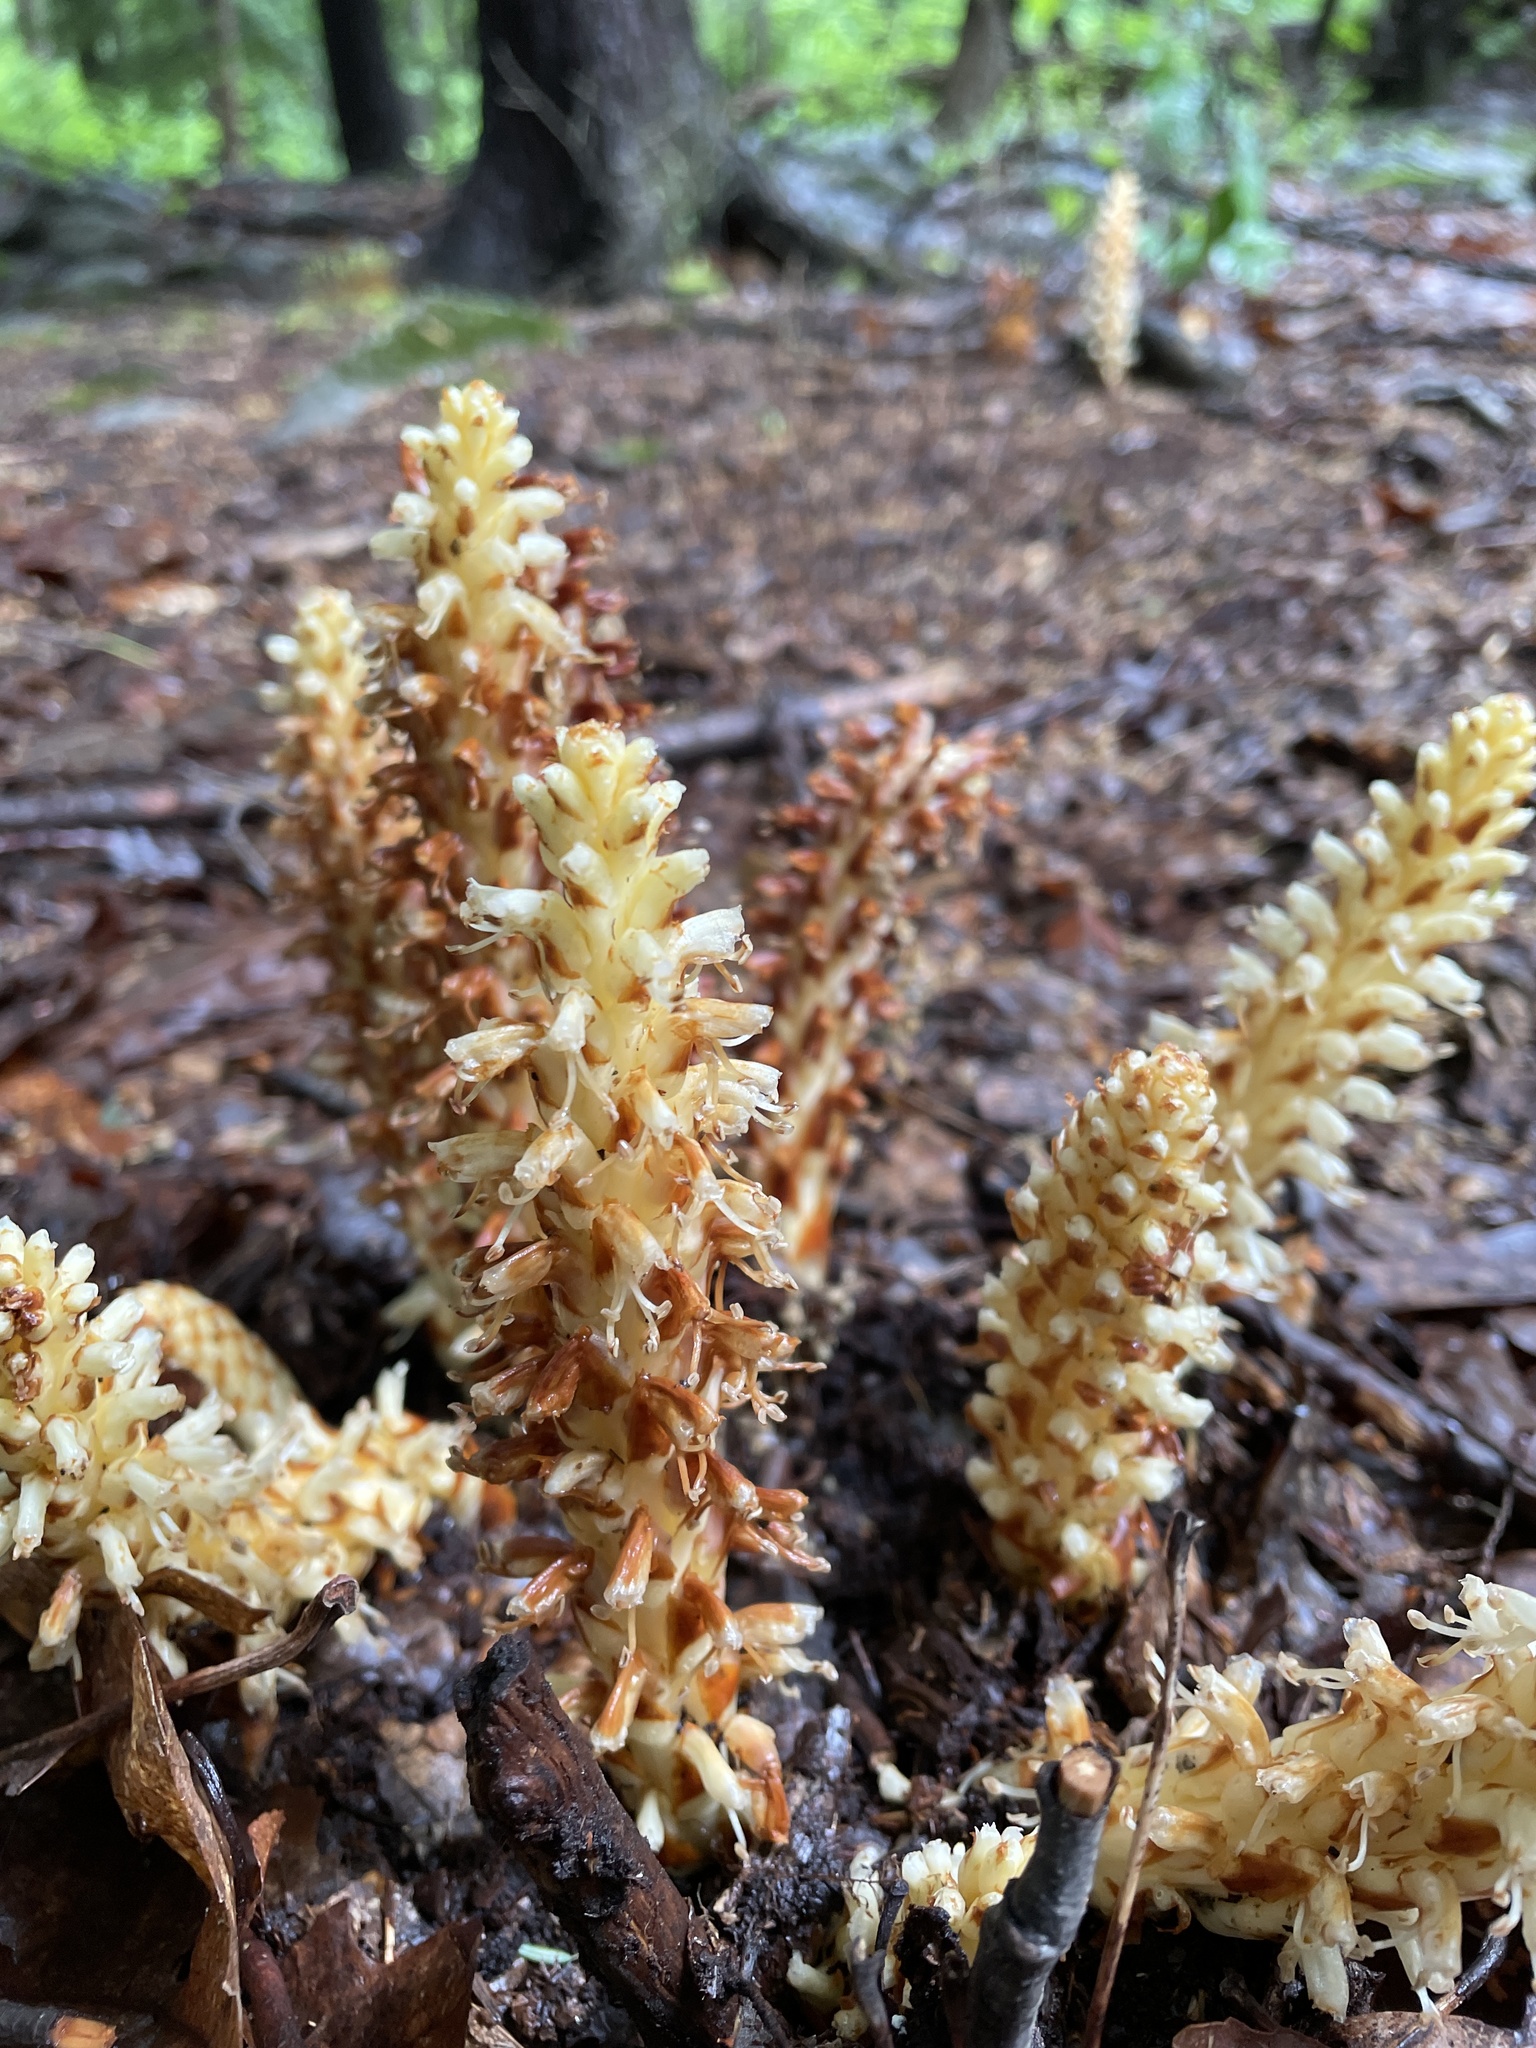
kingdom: Plantae
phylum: Tracheophyta
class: Magnoliopsida
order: Lamiales
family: Orobanchaceae
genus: Conopholis
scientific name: Conopholis americana
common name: American cancer-root
